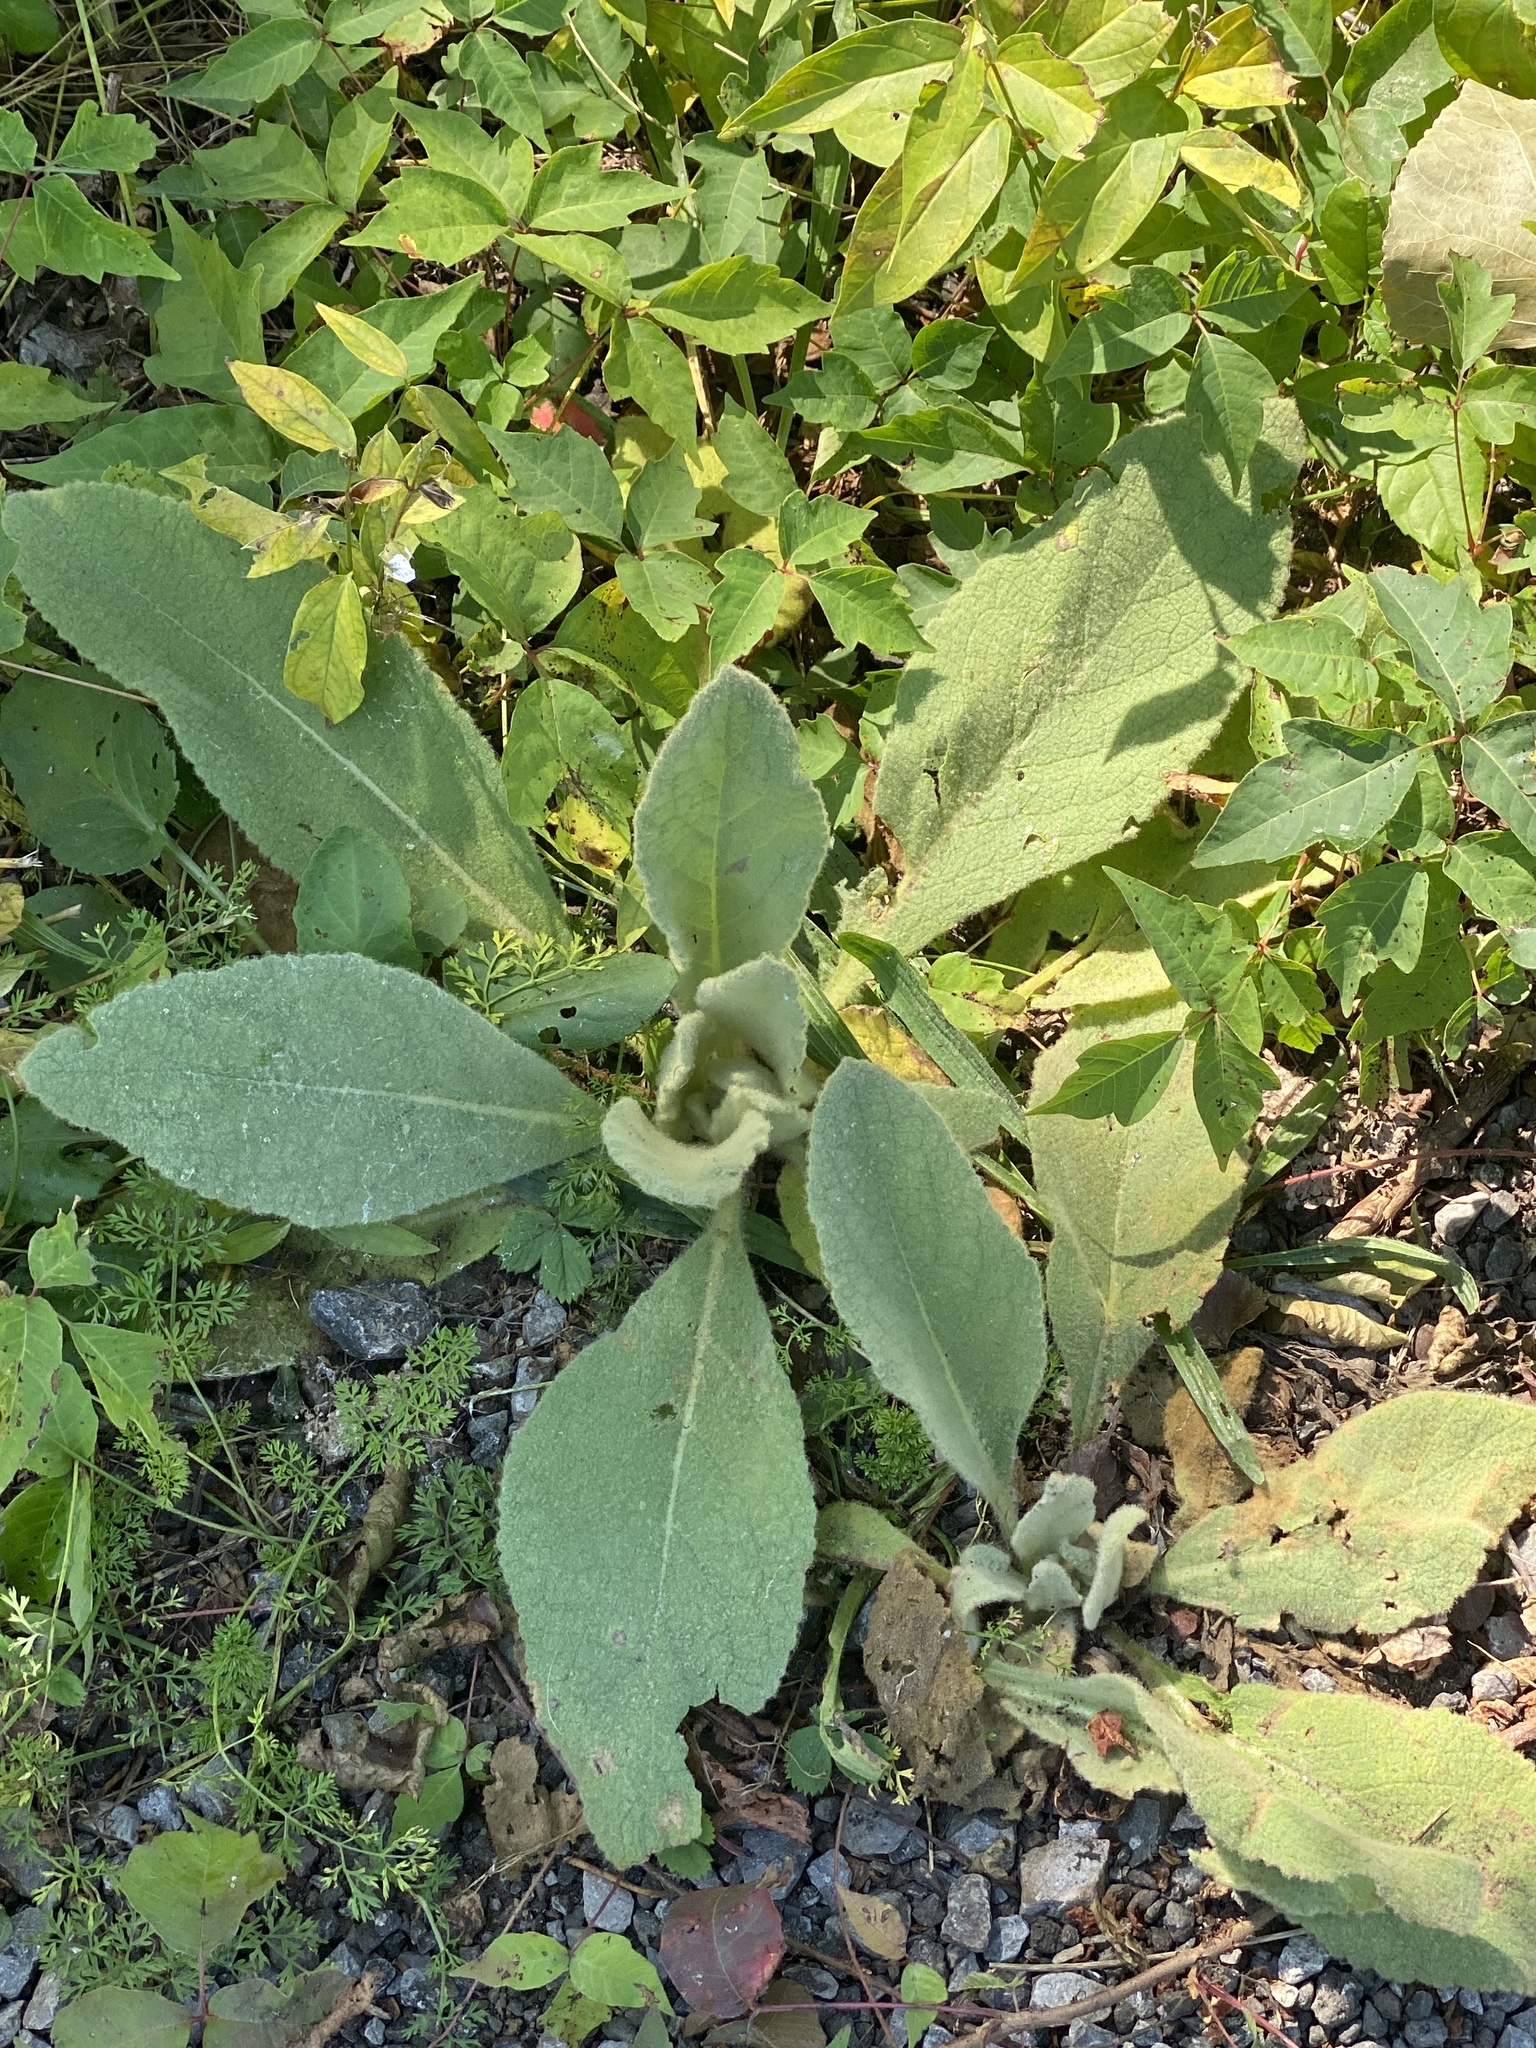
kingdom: Plantae
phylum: Tracheophyta
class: Magnoliopsida
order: Lamiales
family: Scrophulariaceae
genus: Verbascum
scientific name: Verbascum thapsus
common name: Common mullein
